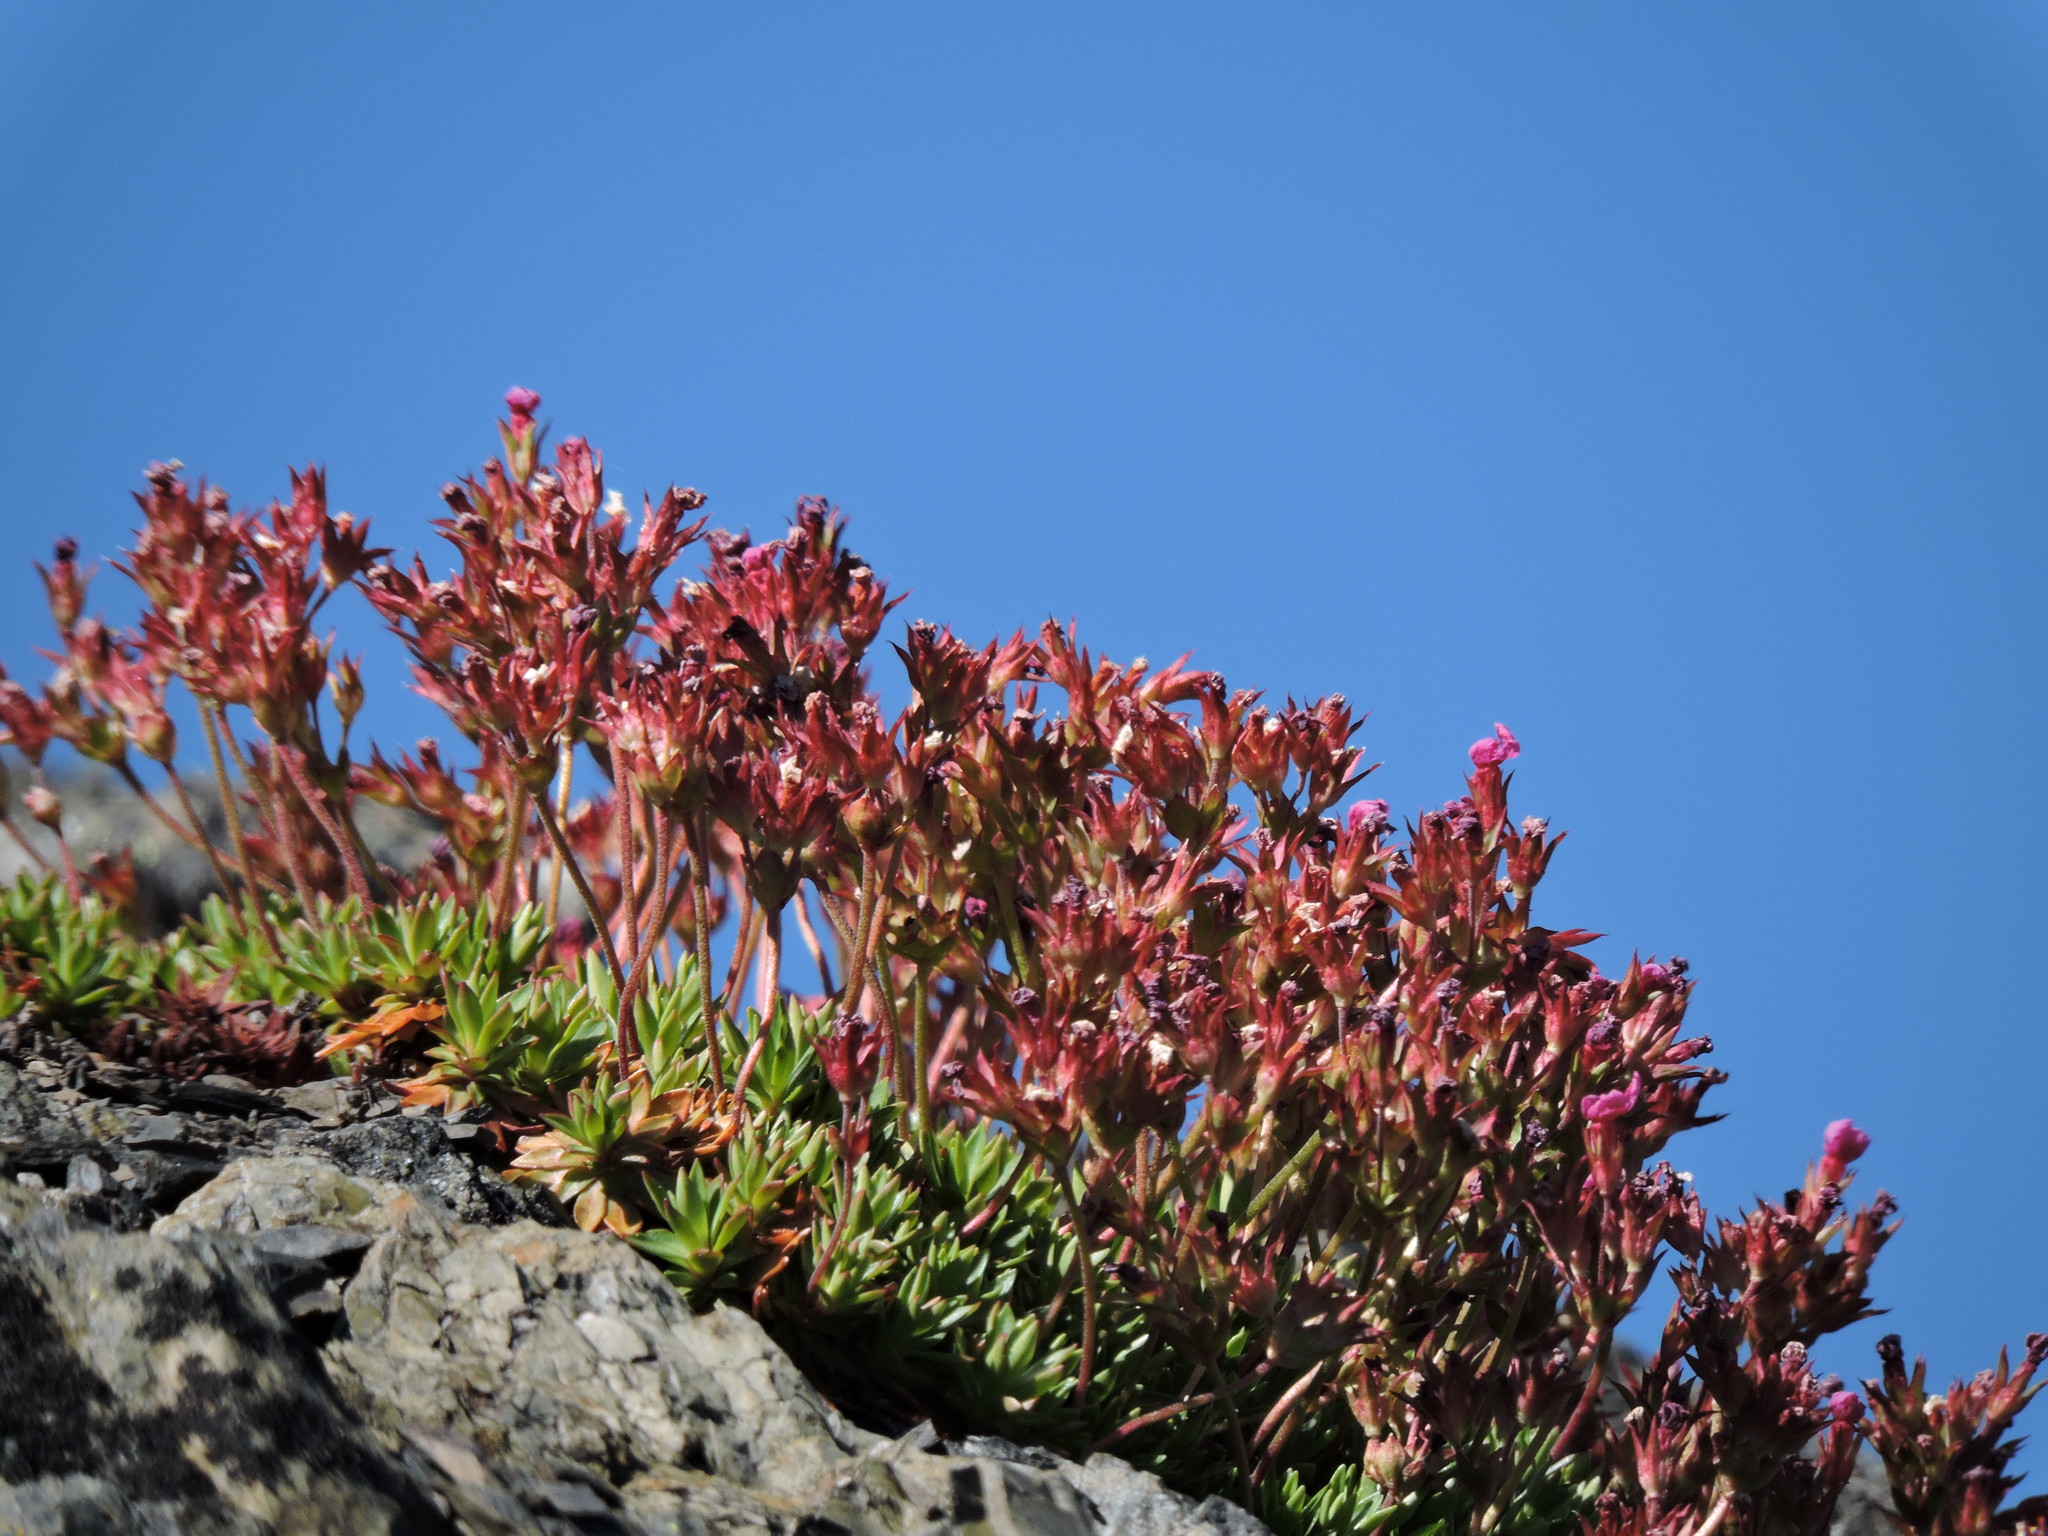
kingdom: Plantae
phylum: Tracheophyta
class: Magnoliopsida
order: Ericales
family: Primulaceae
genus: Androsace
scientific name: Androsace laevigata
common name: Cliff dwarf-primrose
